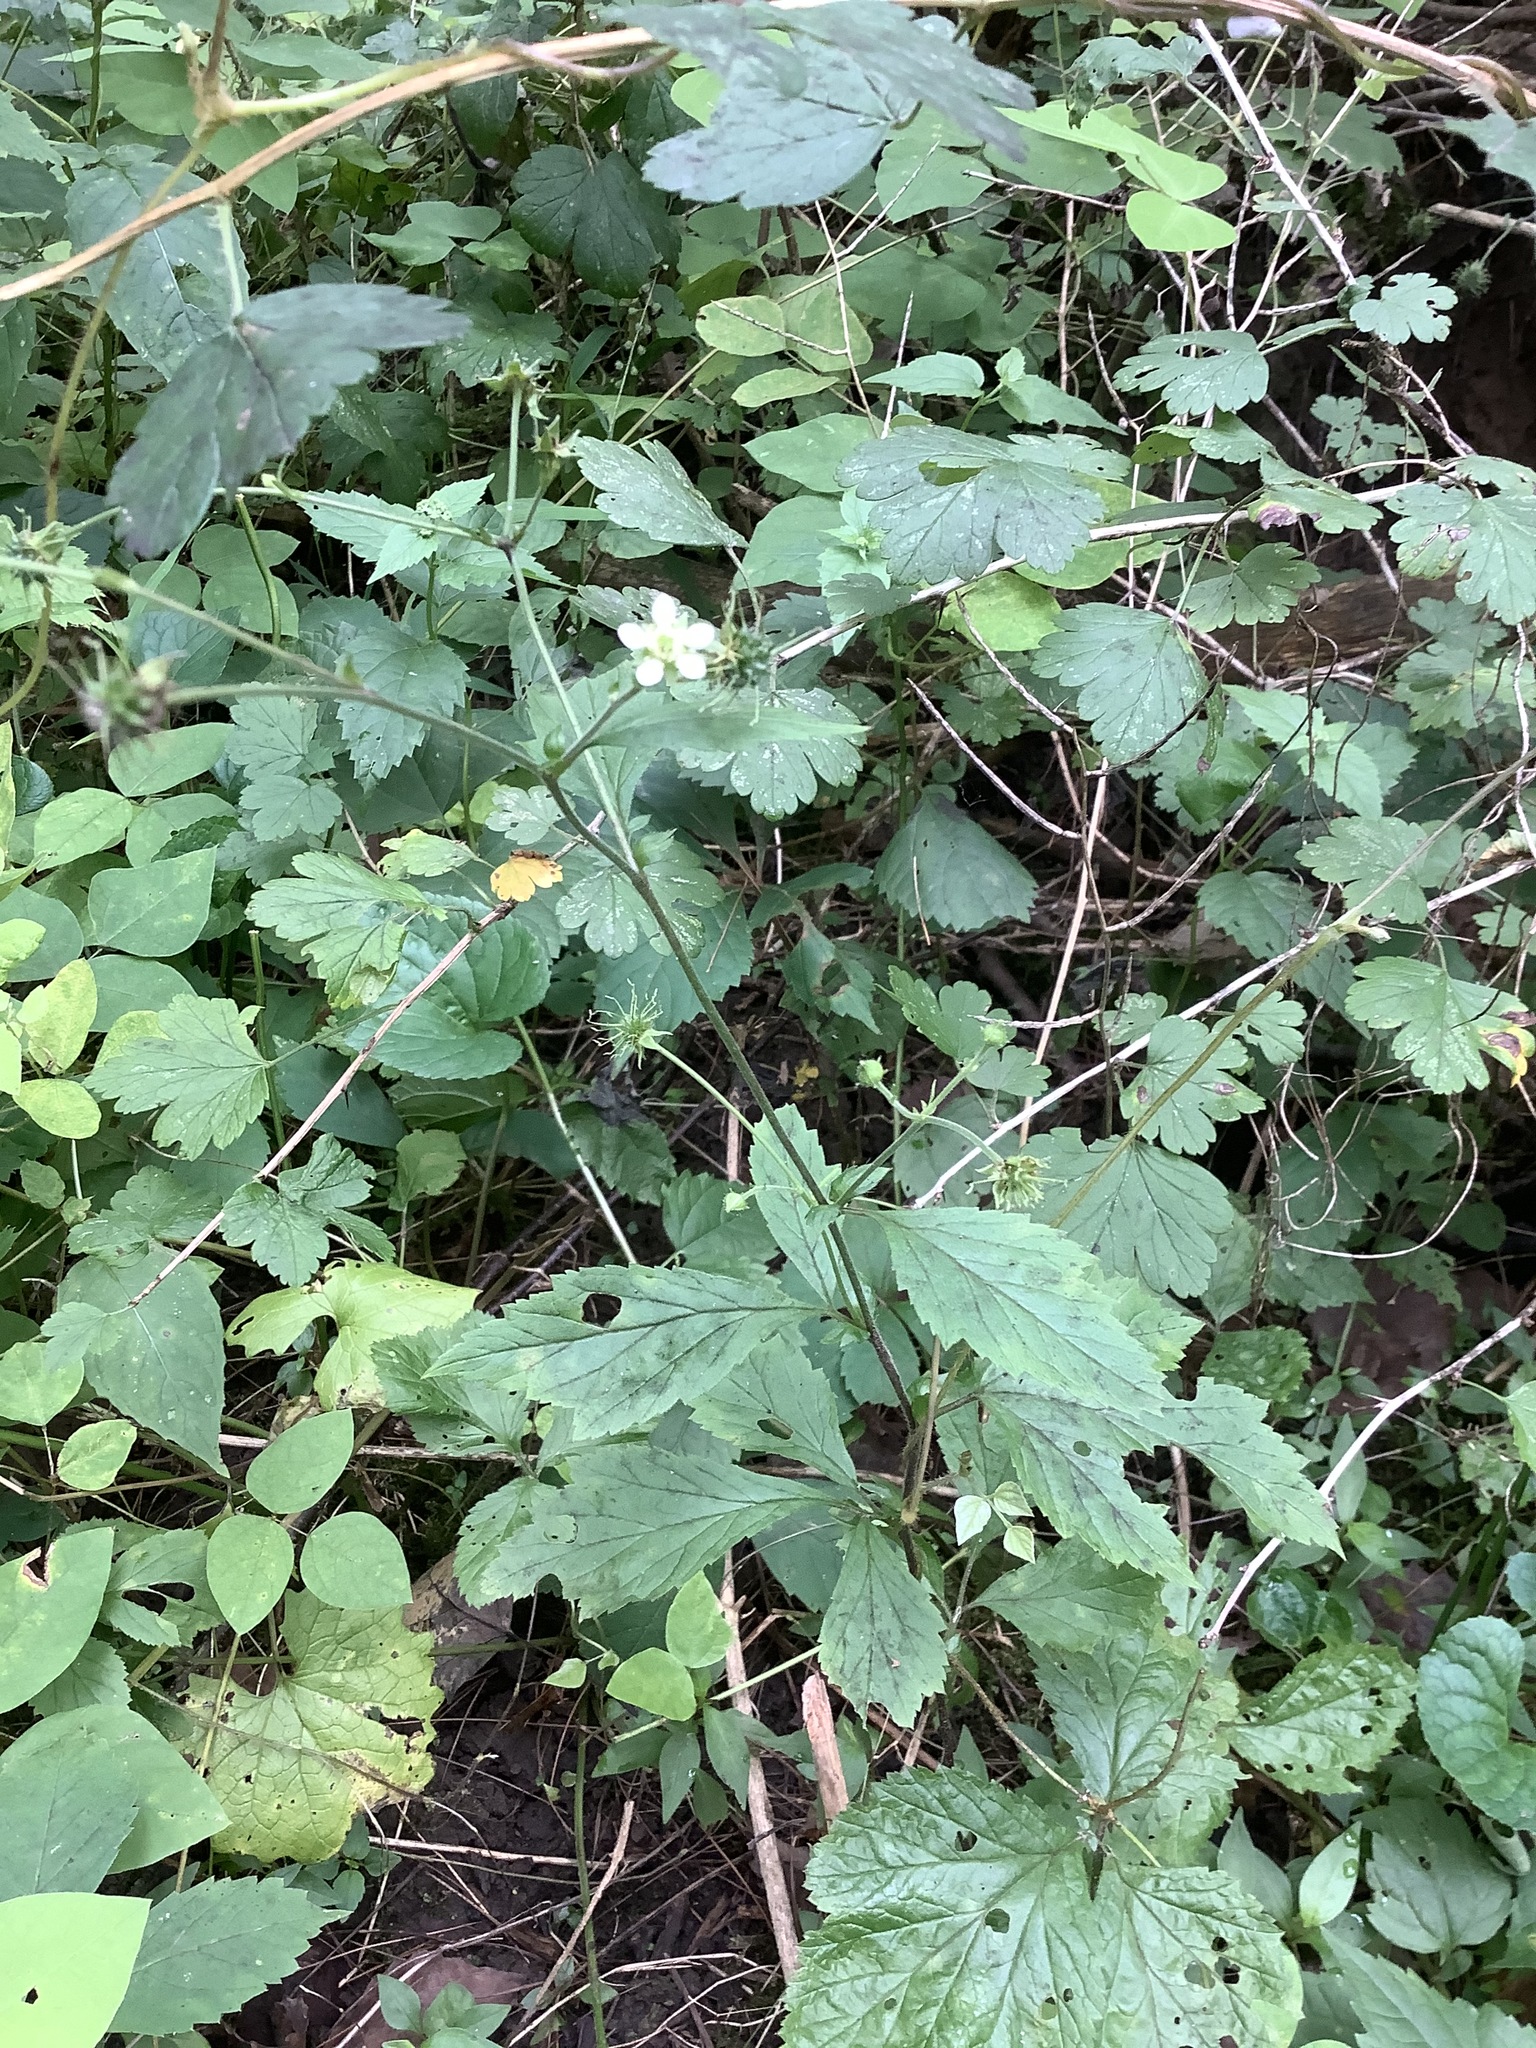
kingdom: Plantae
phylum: Tracheophyta
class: Magnoliopsida
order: Rosales
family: Rosaceae
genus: Geum
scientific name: Geum canadense
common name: White avens
